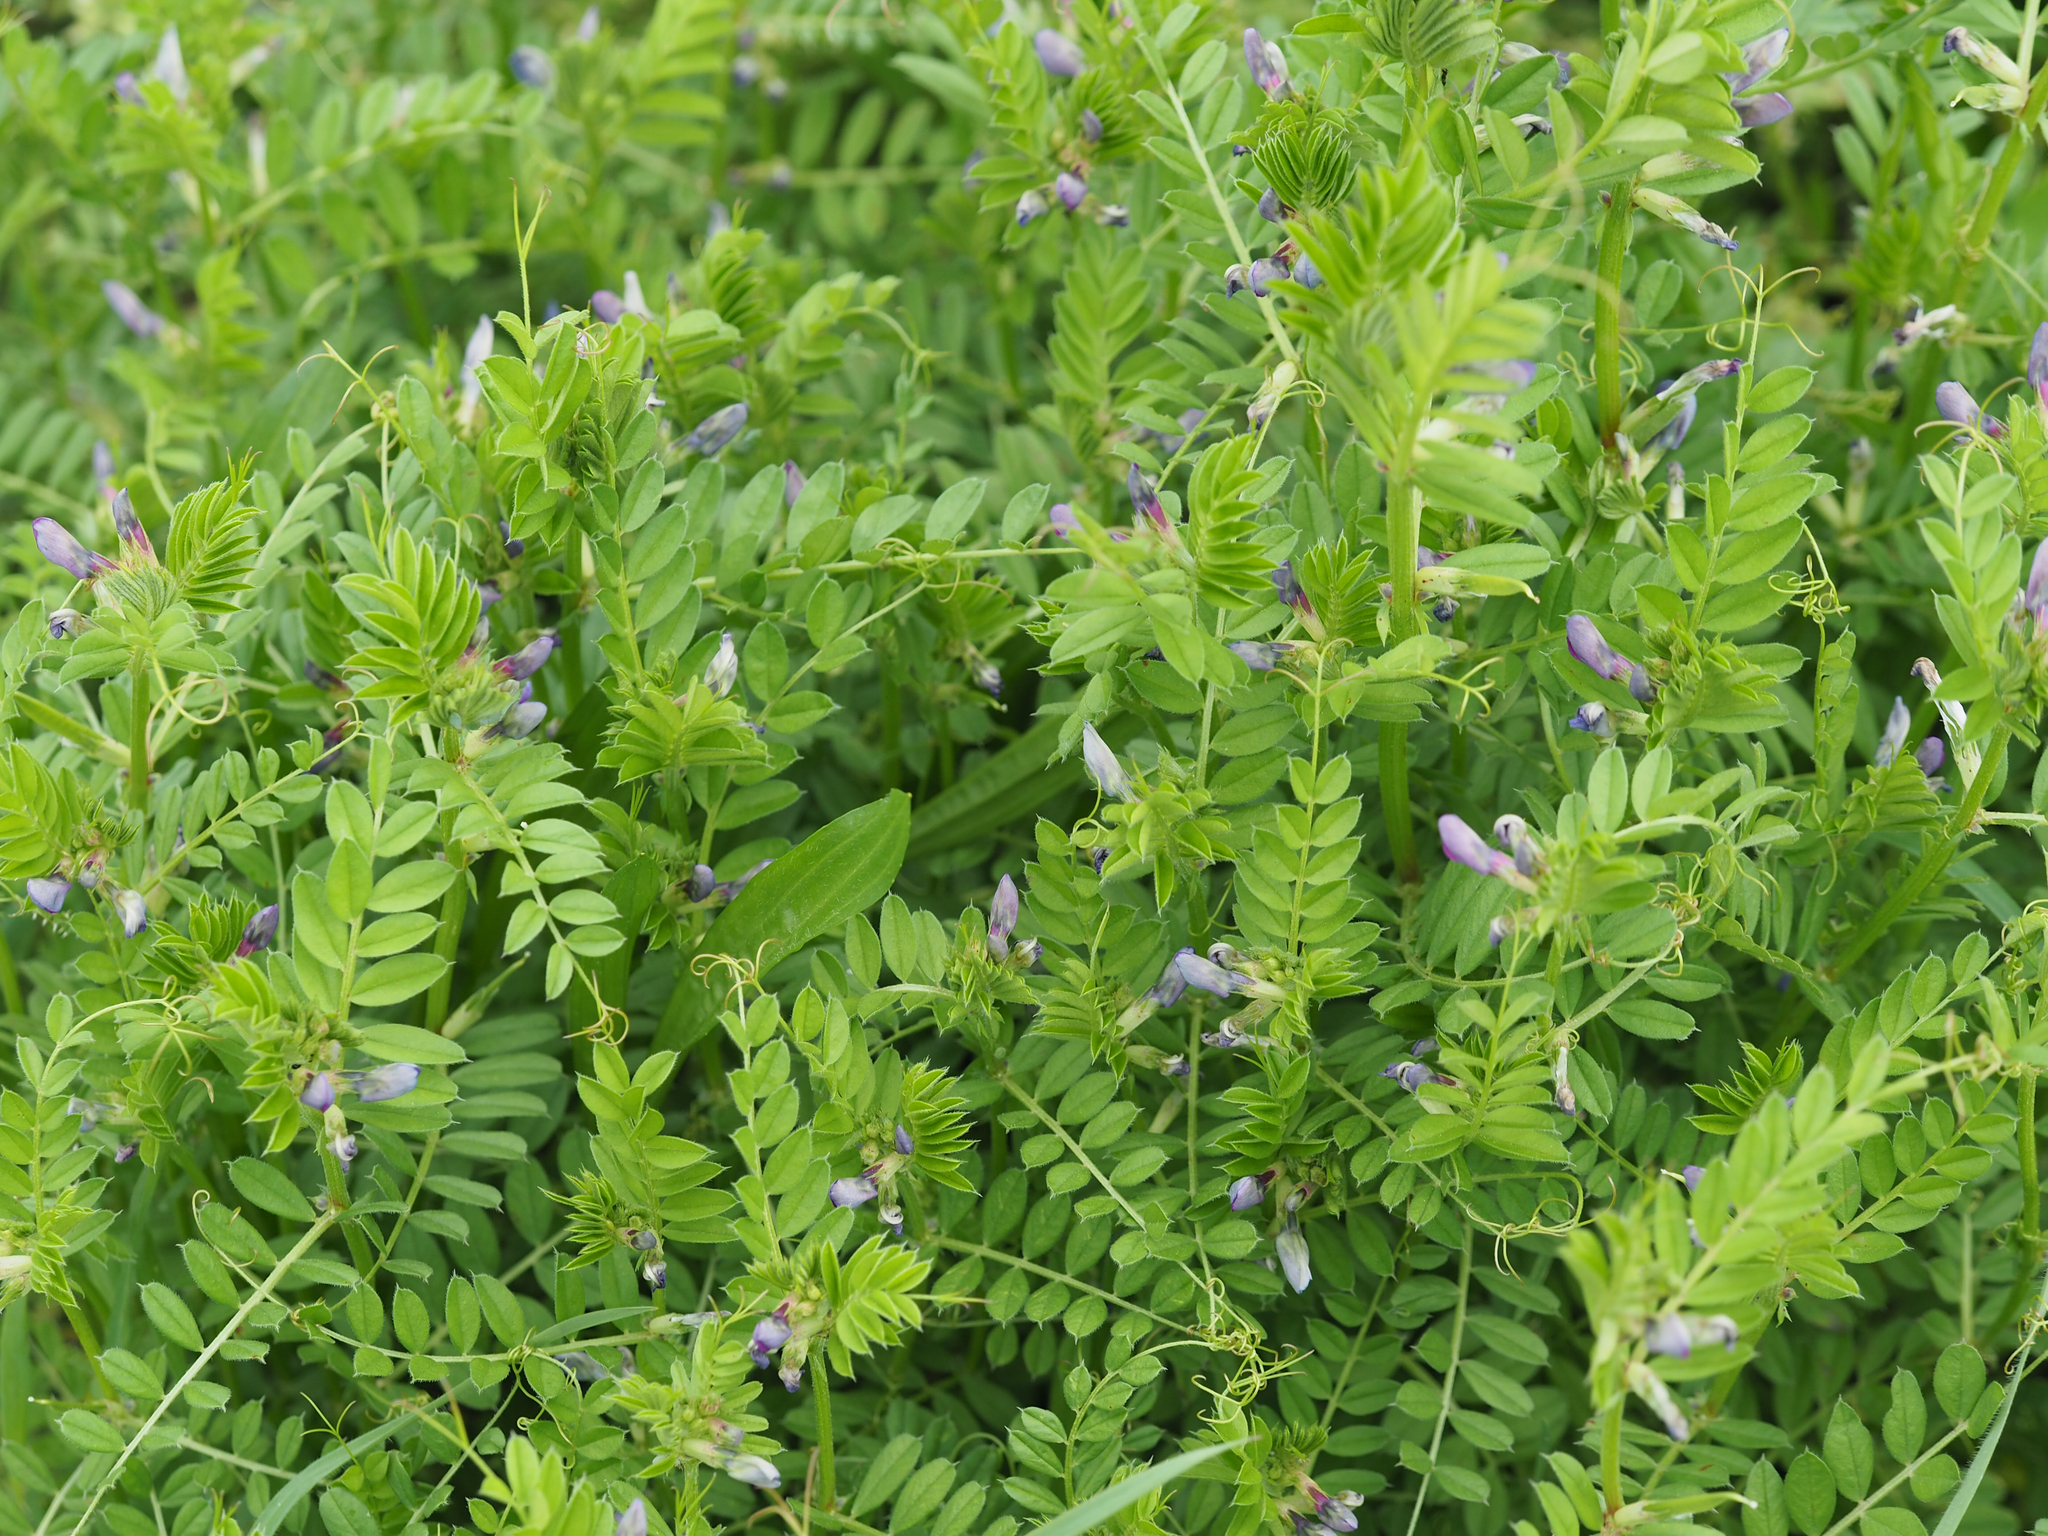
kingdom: Plantae
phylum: Tracheophyta
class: Magnoliopsida
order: Fabales
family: Fabaceae
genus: Vicia
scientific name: Vicia sativa
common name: Garden vetch
